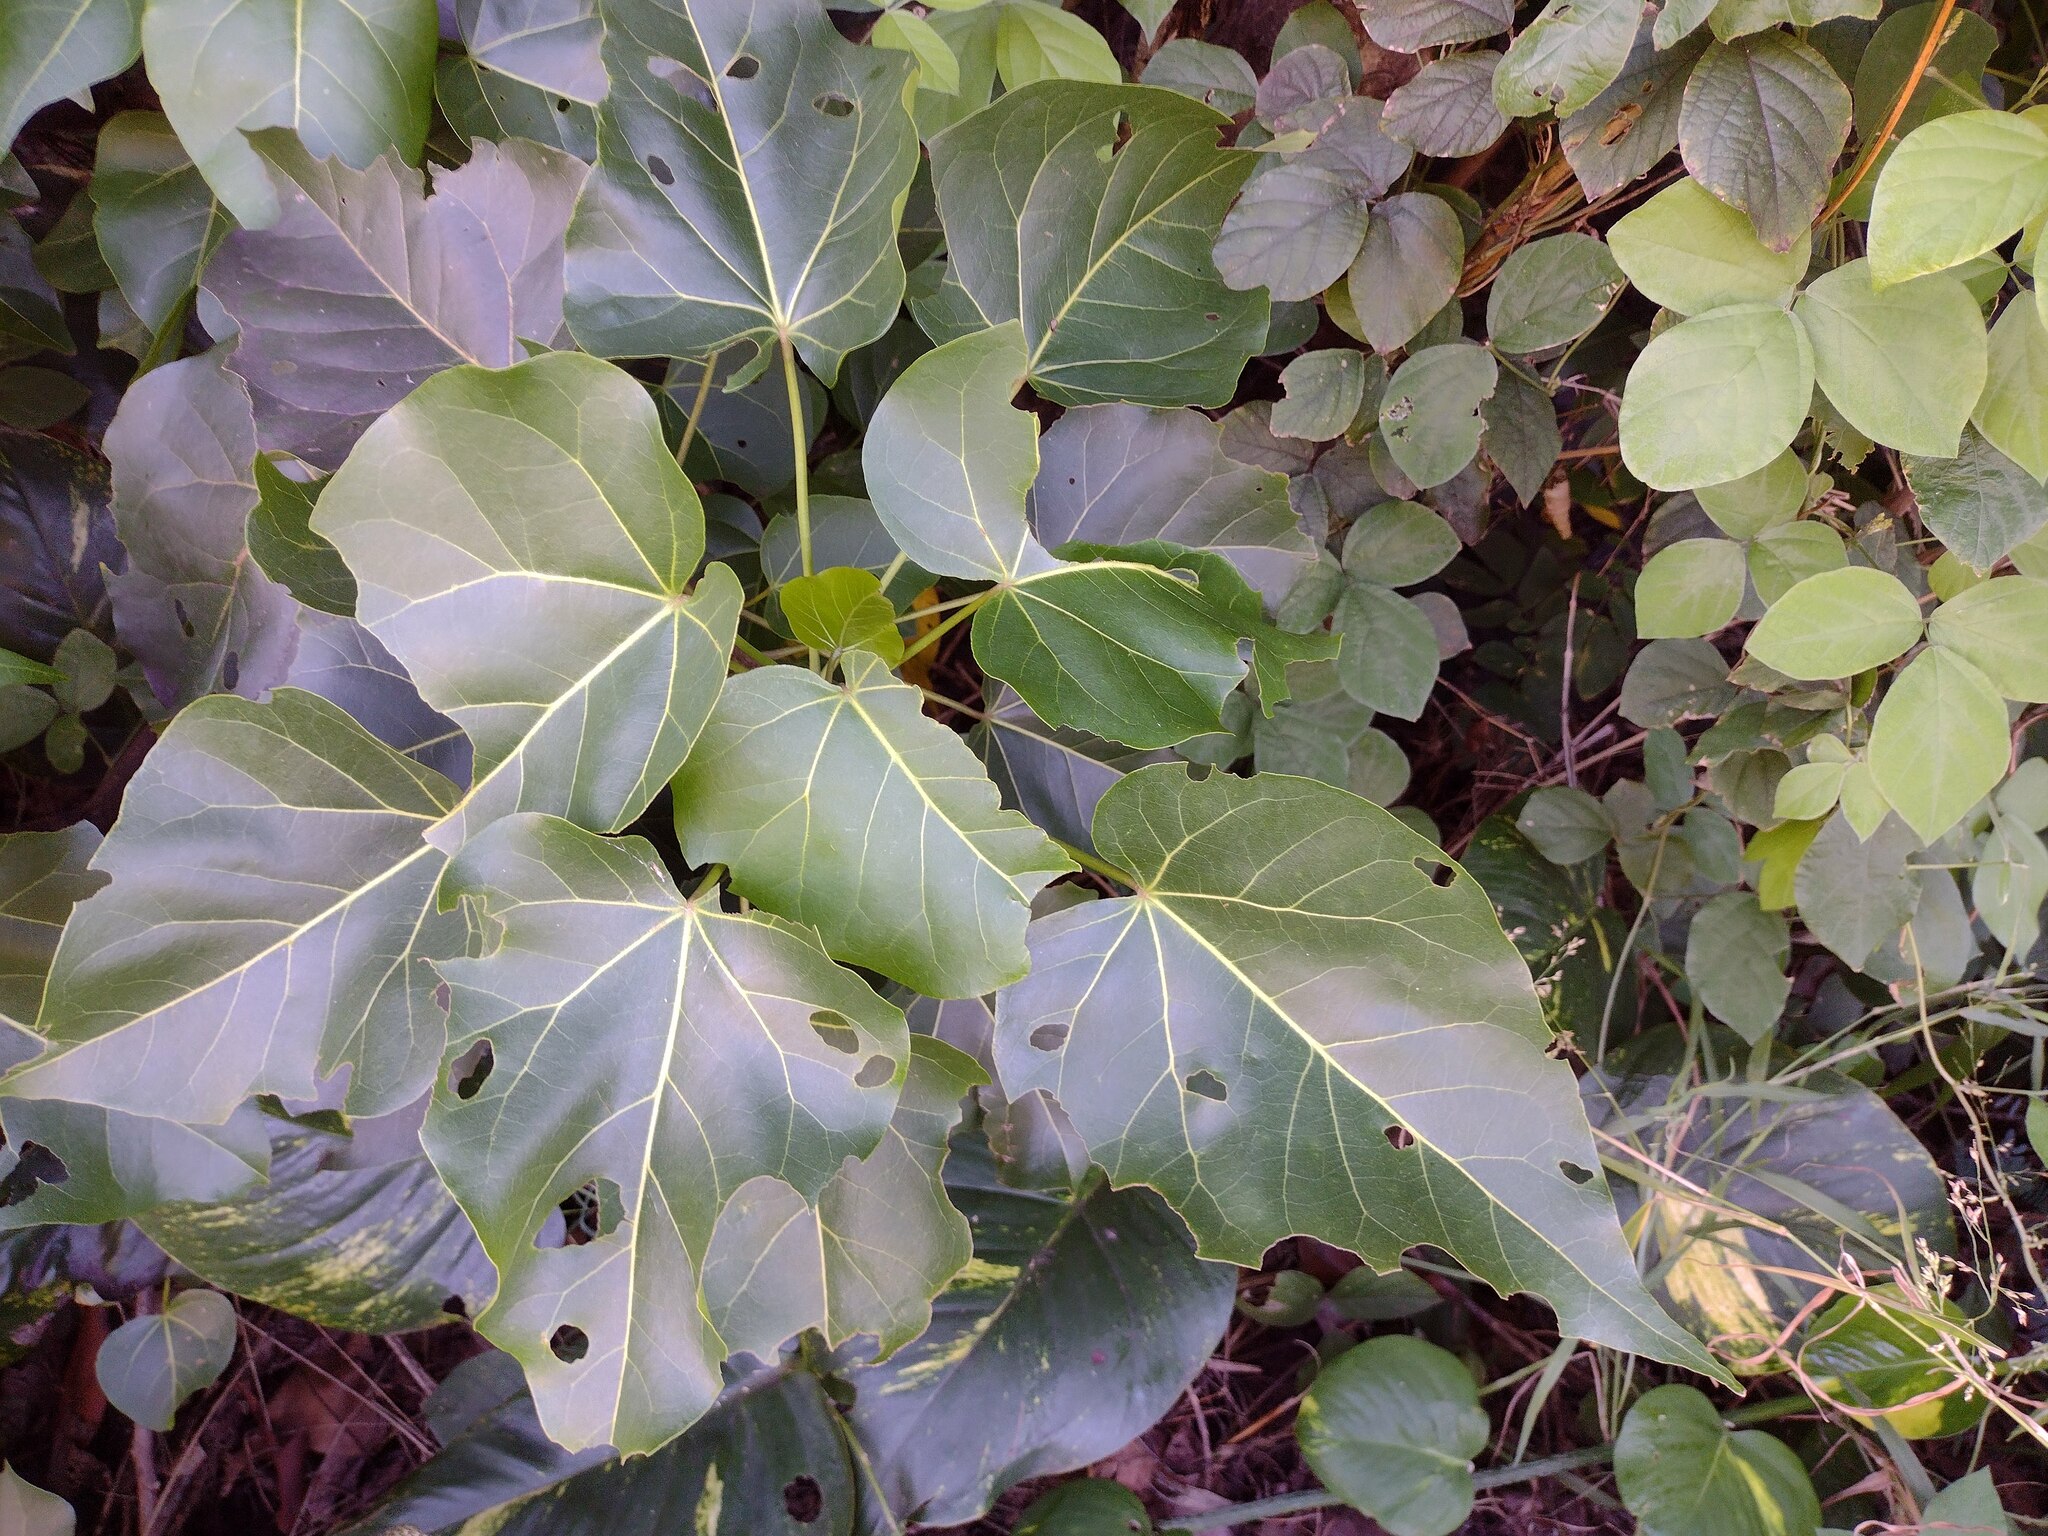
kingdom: Plantae
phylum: Tracheophyta
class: Magnoliopsida
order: Malvales
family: Malvaceae
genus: Thespesia
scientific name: Thespesia populnea
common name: Seaside mahoe
